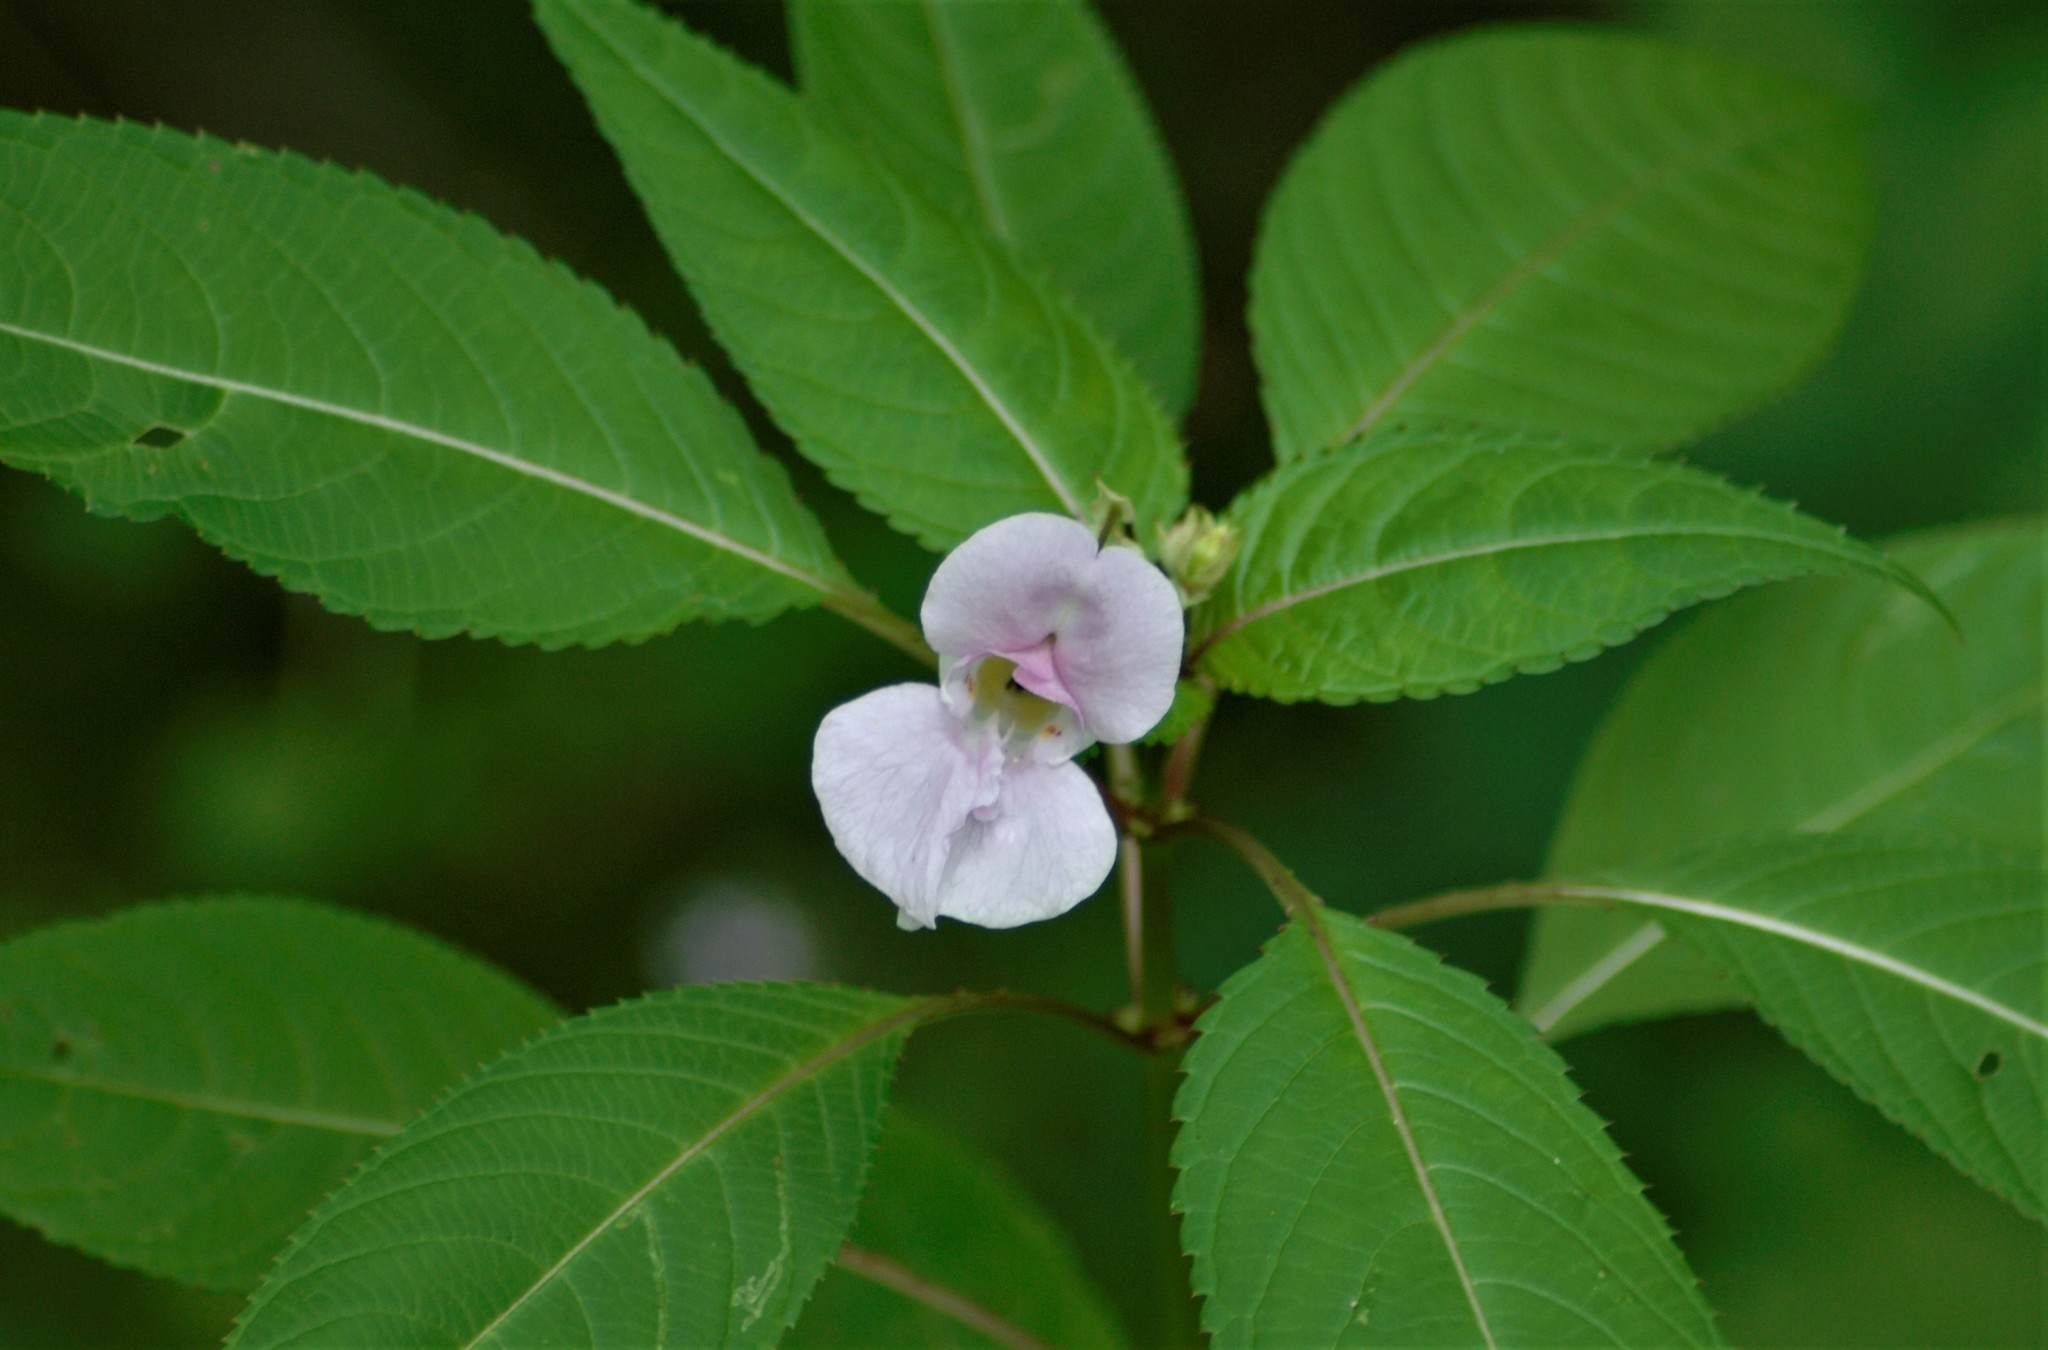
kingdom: Plantae
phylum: Tracheophyta
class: Magnoliopsida
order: Ericales
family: Balsaminaceae
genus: Impatiens
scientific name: Impatiens glandulifera
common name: Himalayan balsam
